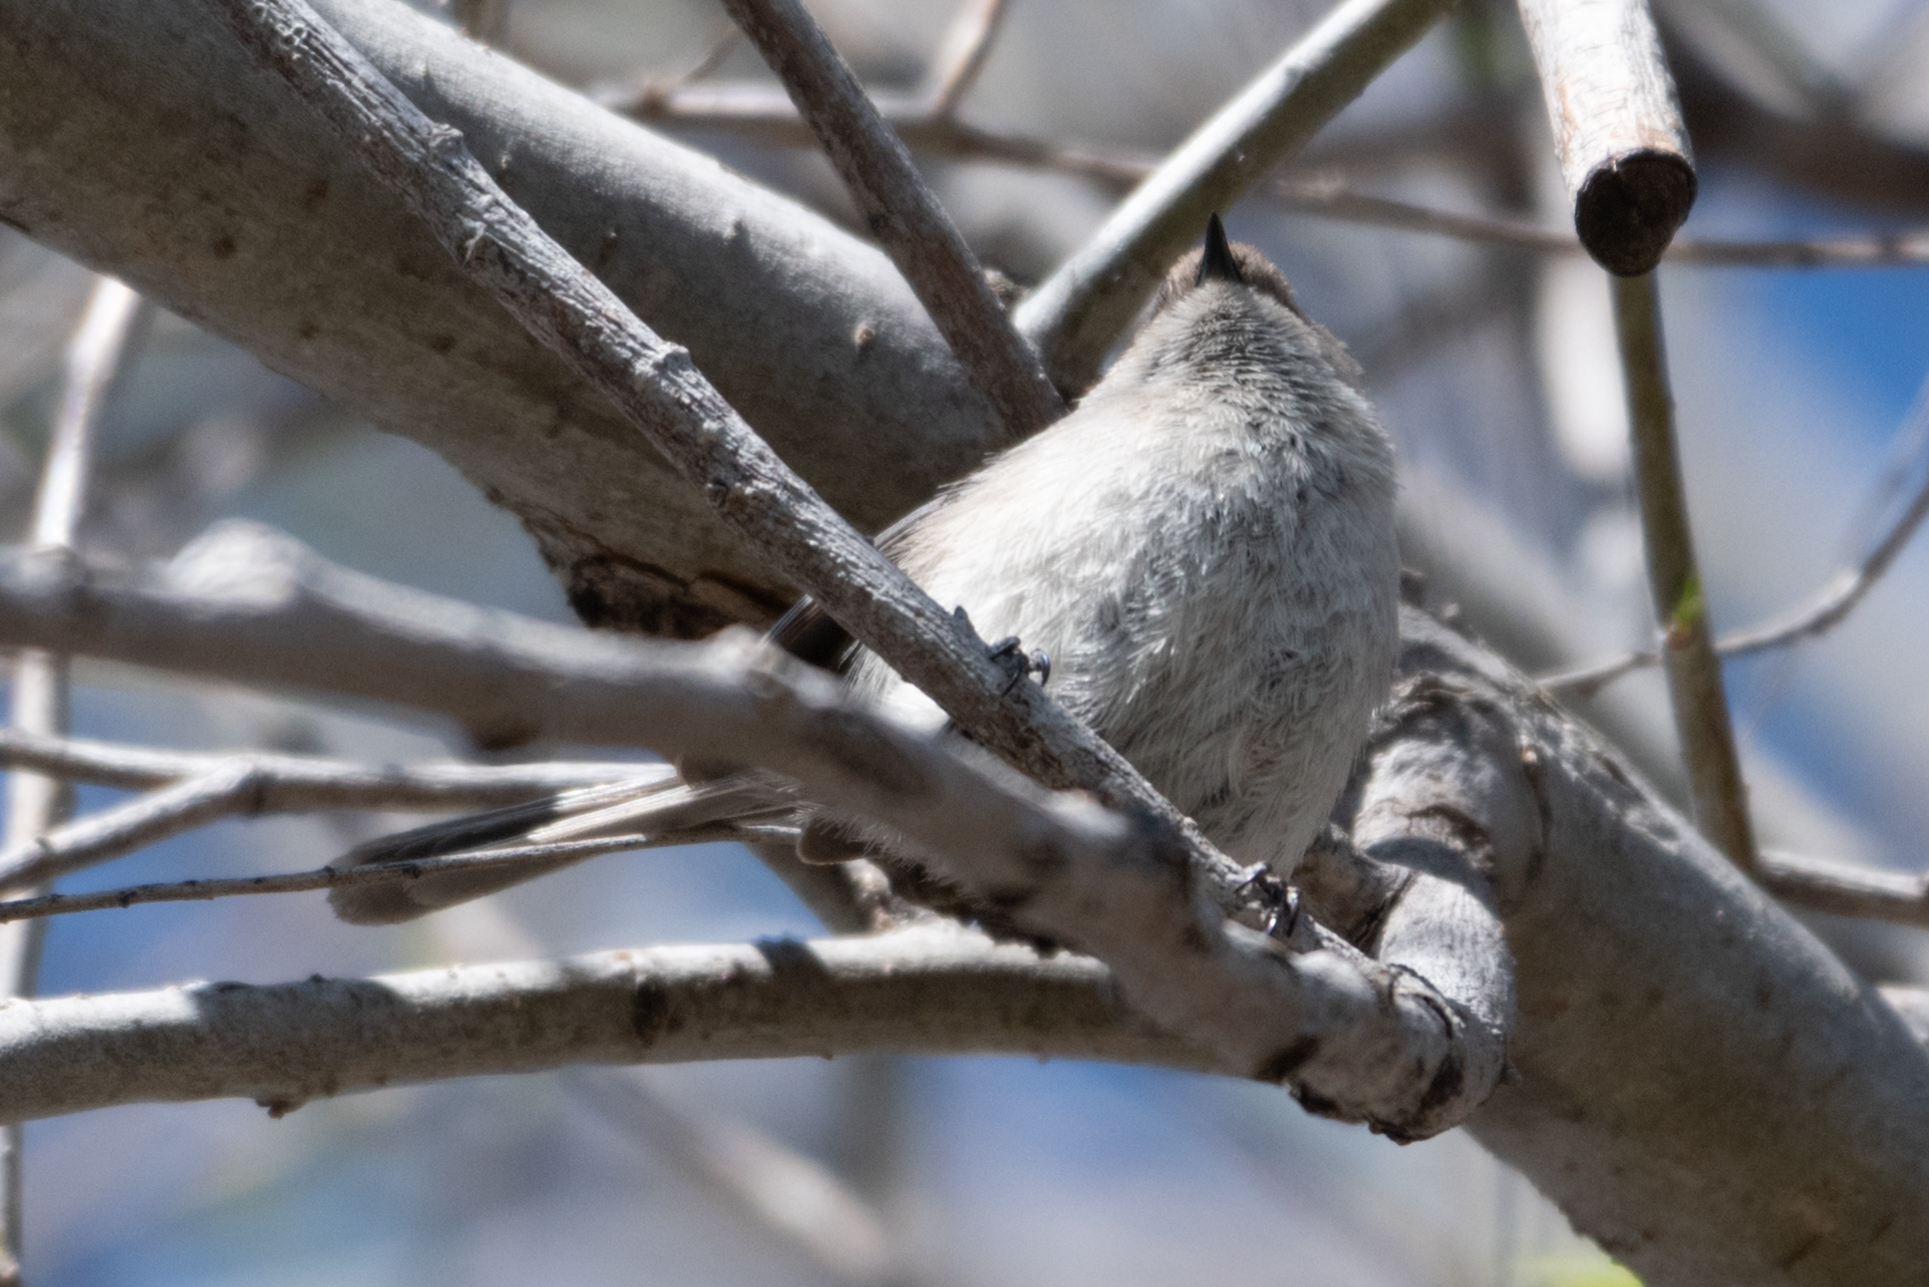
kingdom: Animalia
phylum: Chordata
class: Aves
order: Passeriformes
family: Aegithalidae
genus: Psaltriparus
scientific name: Psaltriparus minimus
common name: American bushtit
